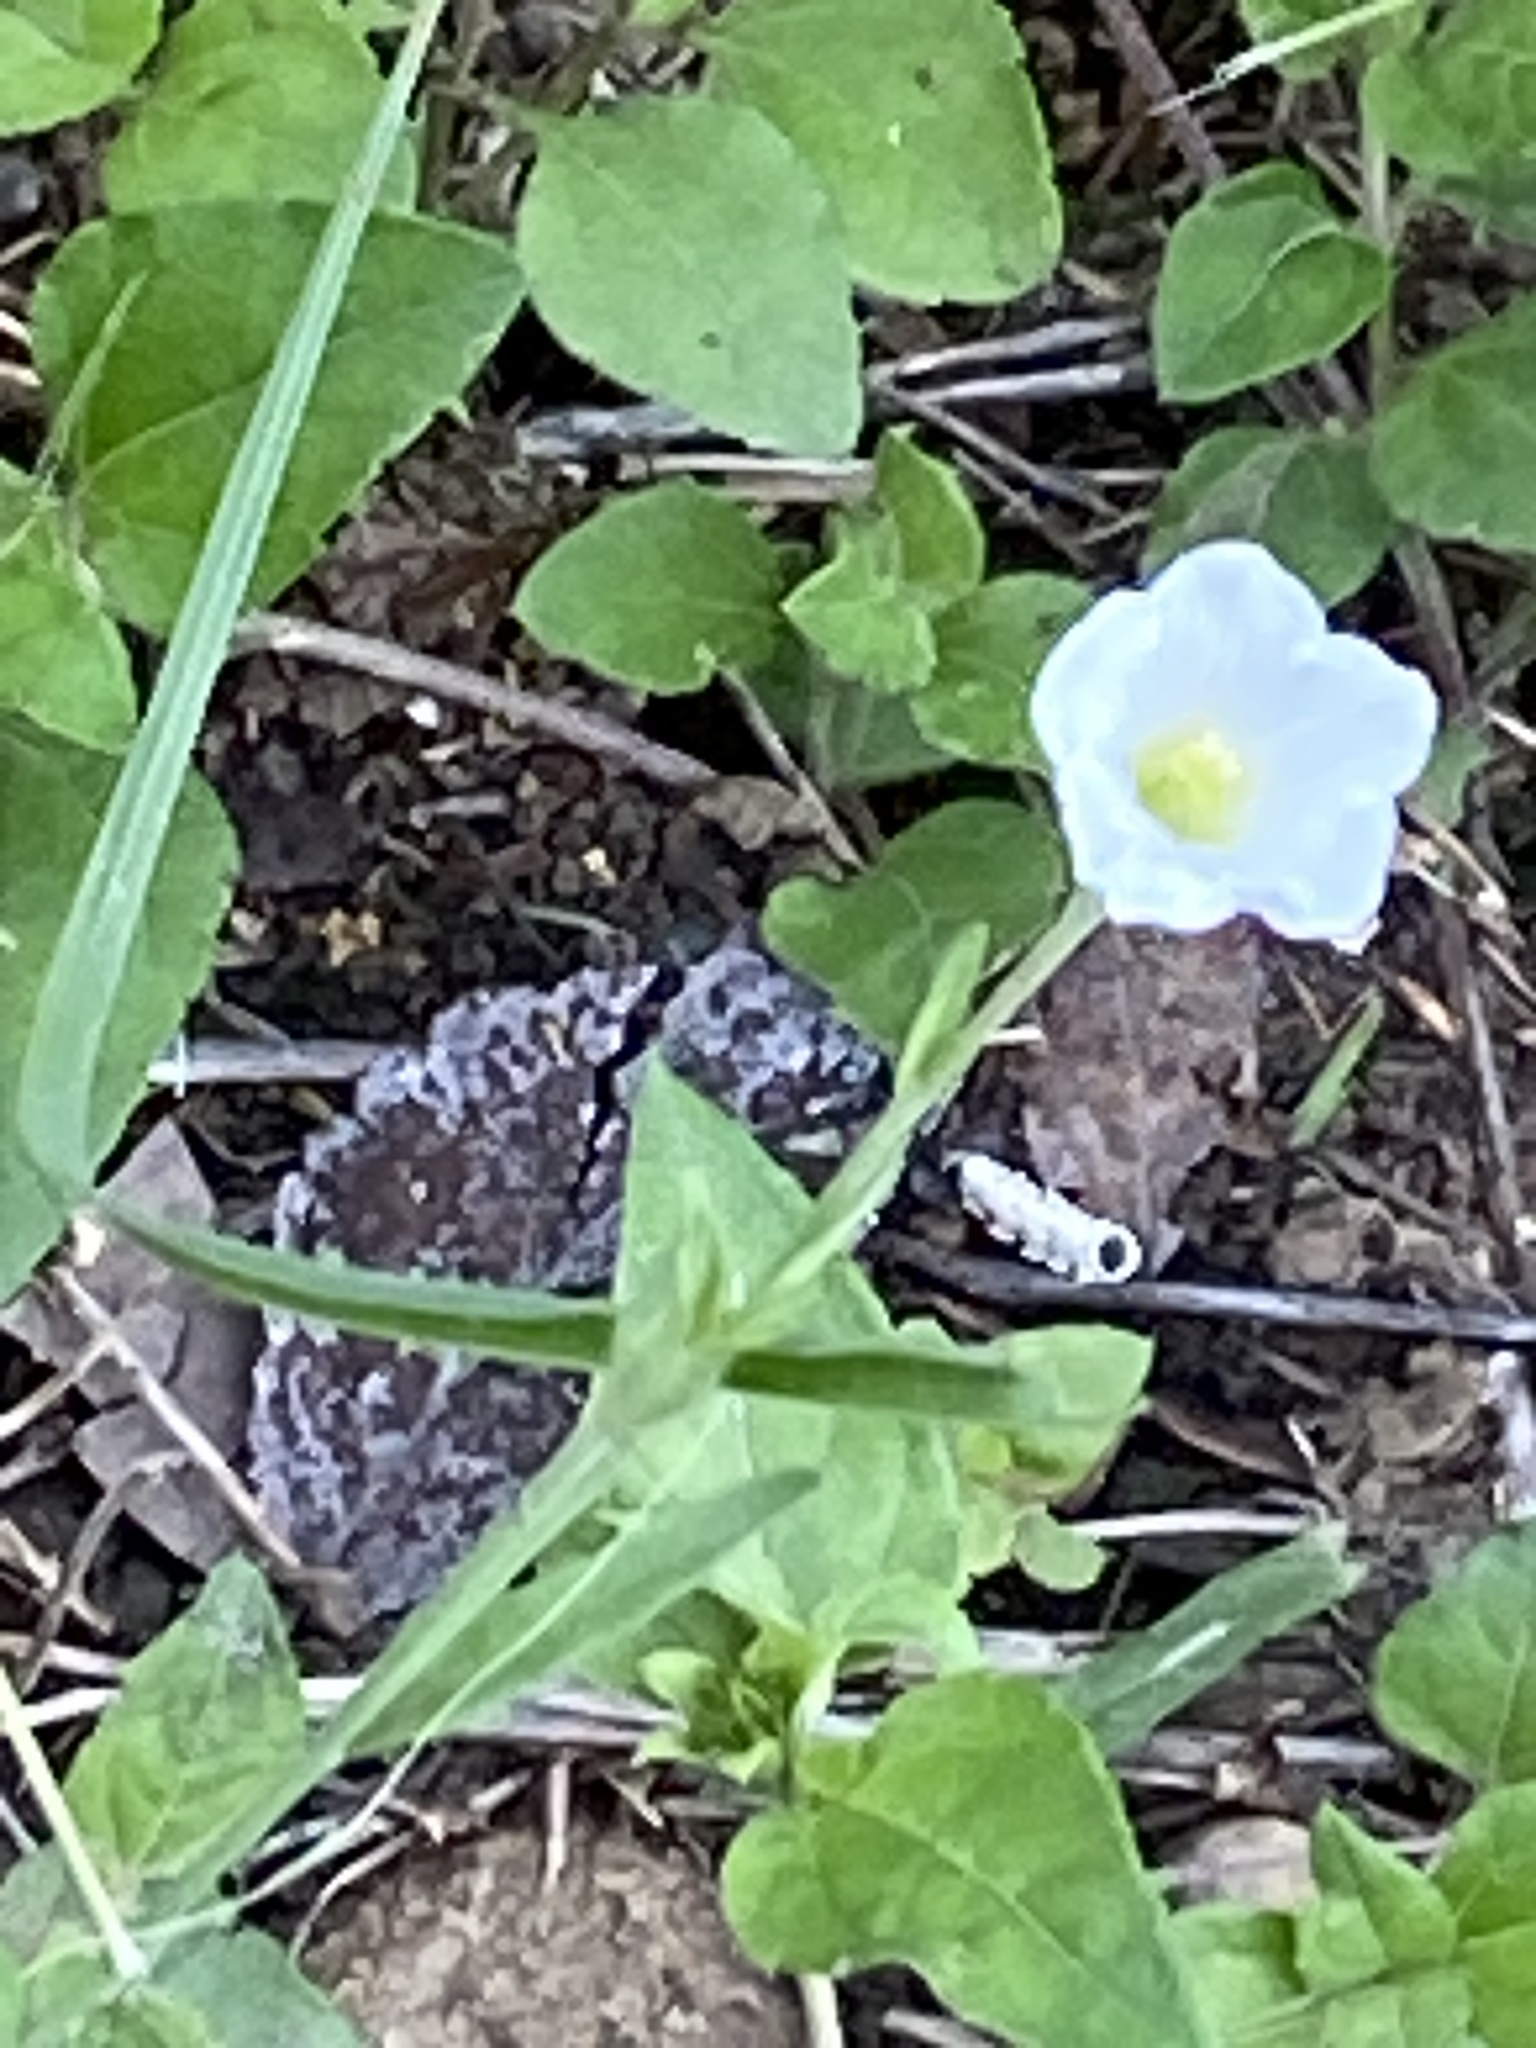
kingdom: Plantae
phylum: Tracheophyta
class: Magnoliopsida
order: Solanales
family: Solanaceae
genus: Salpiglossis
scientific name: Salpiglossis erecta
